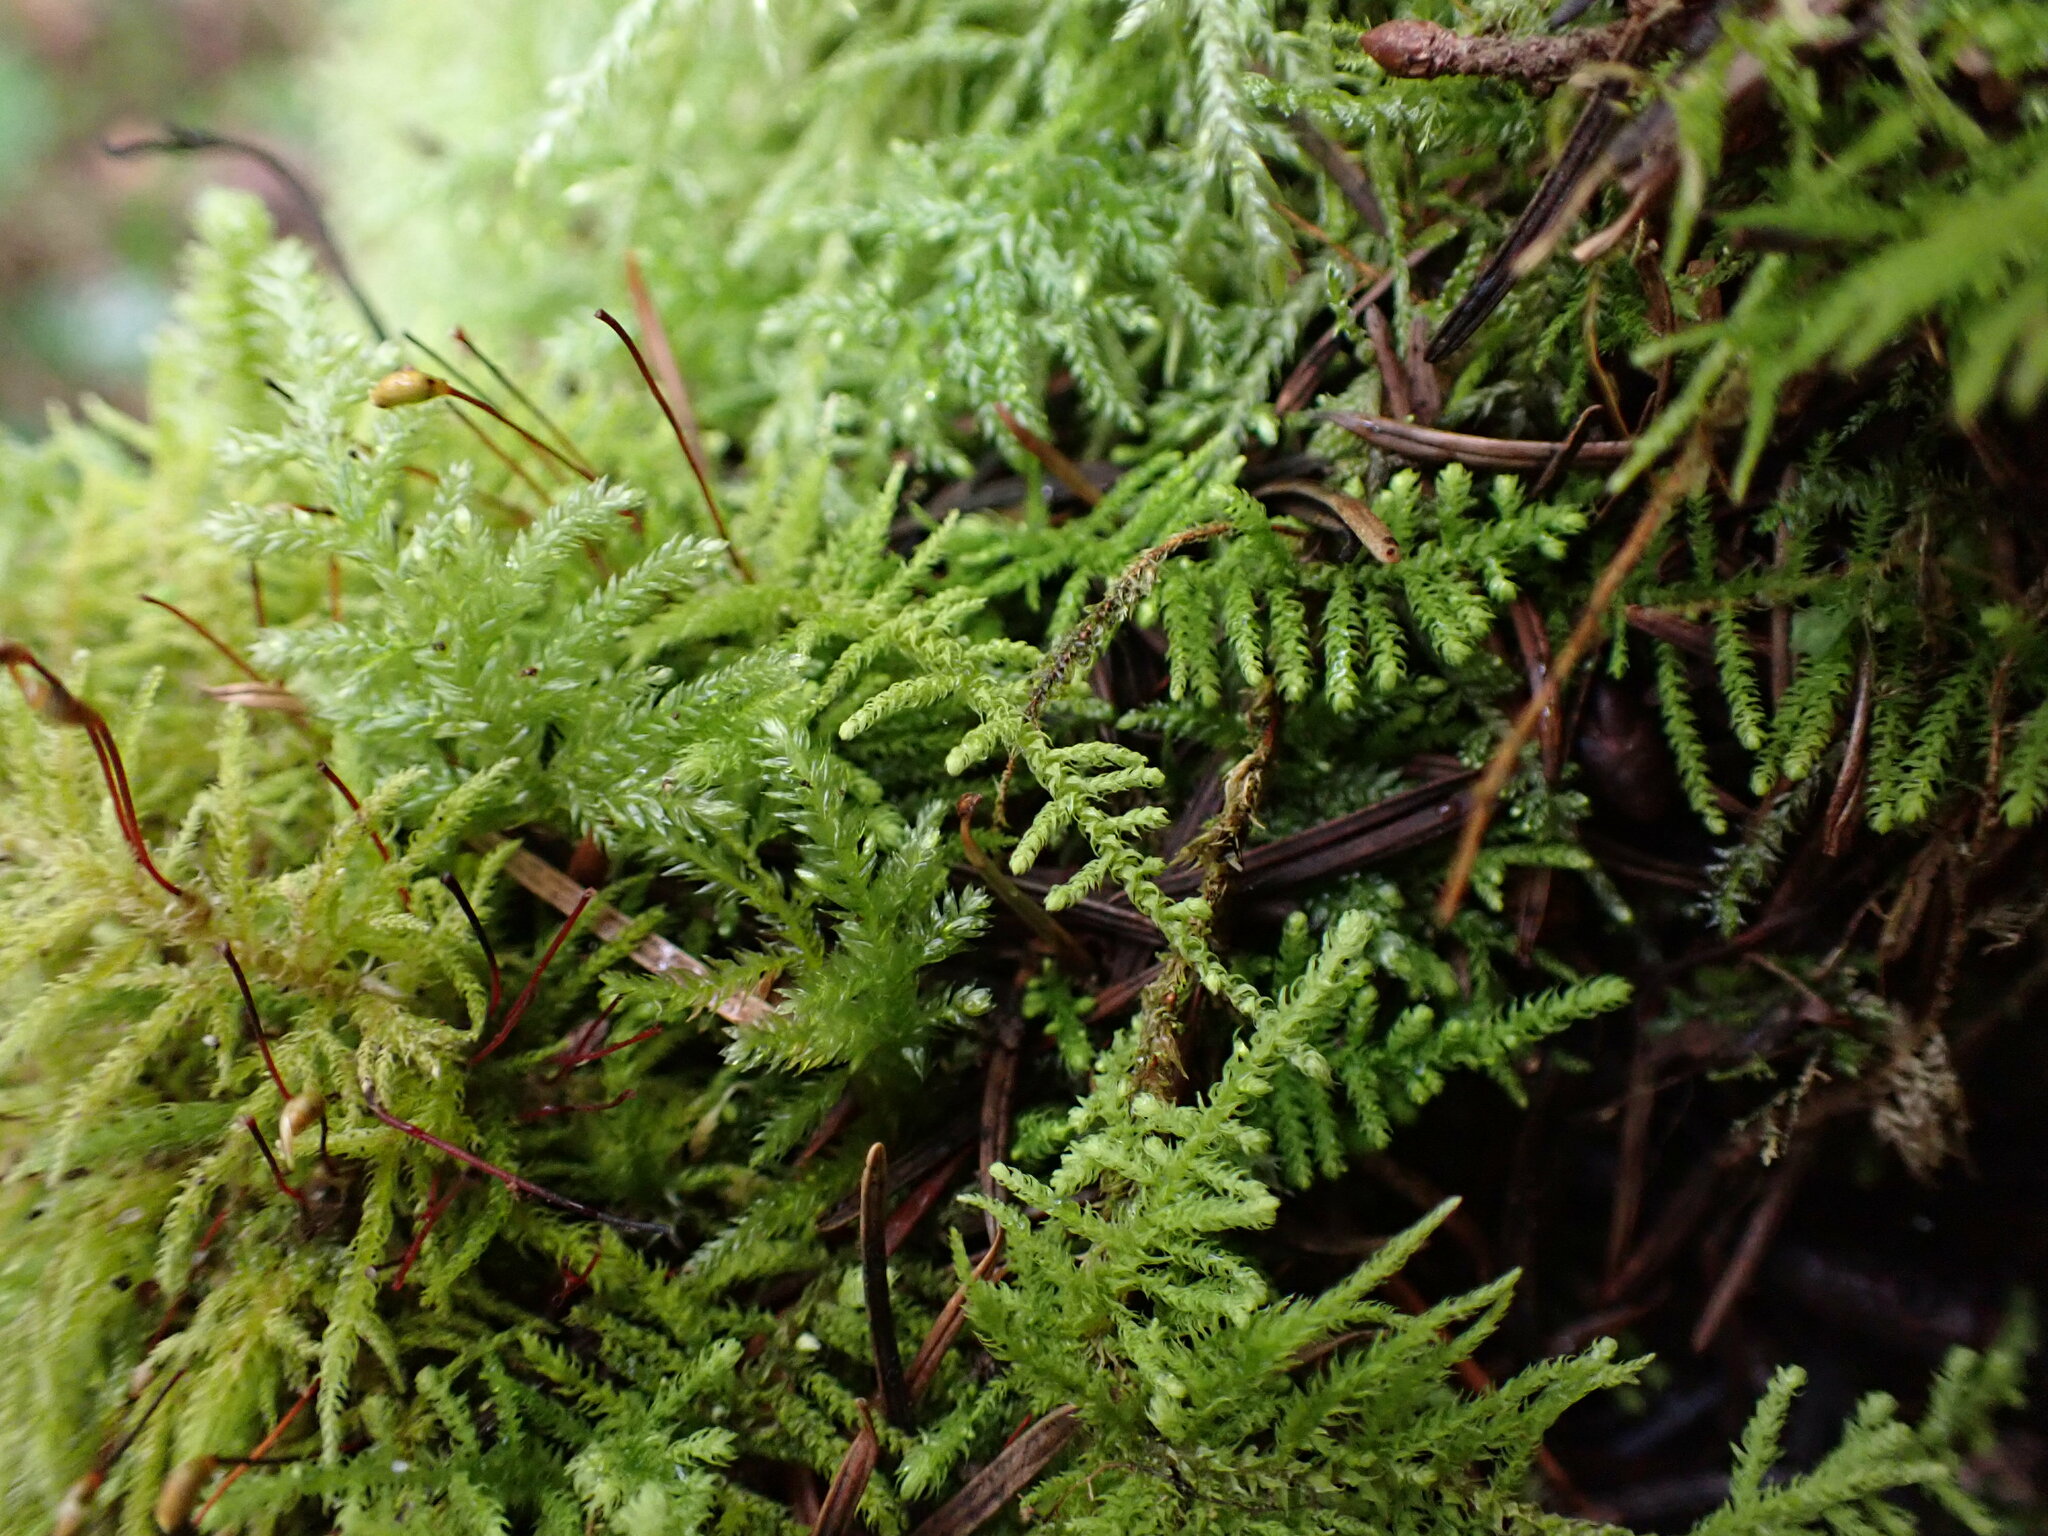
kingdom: Plantae
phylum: Bryophyta
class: Bryopsida
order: Hypnales
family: Brachytheciaceae
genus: Claopodium
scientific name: Claopodium crispifolium
